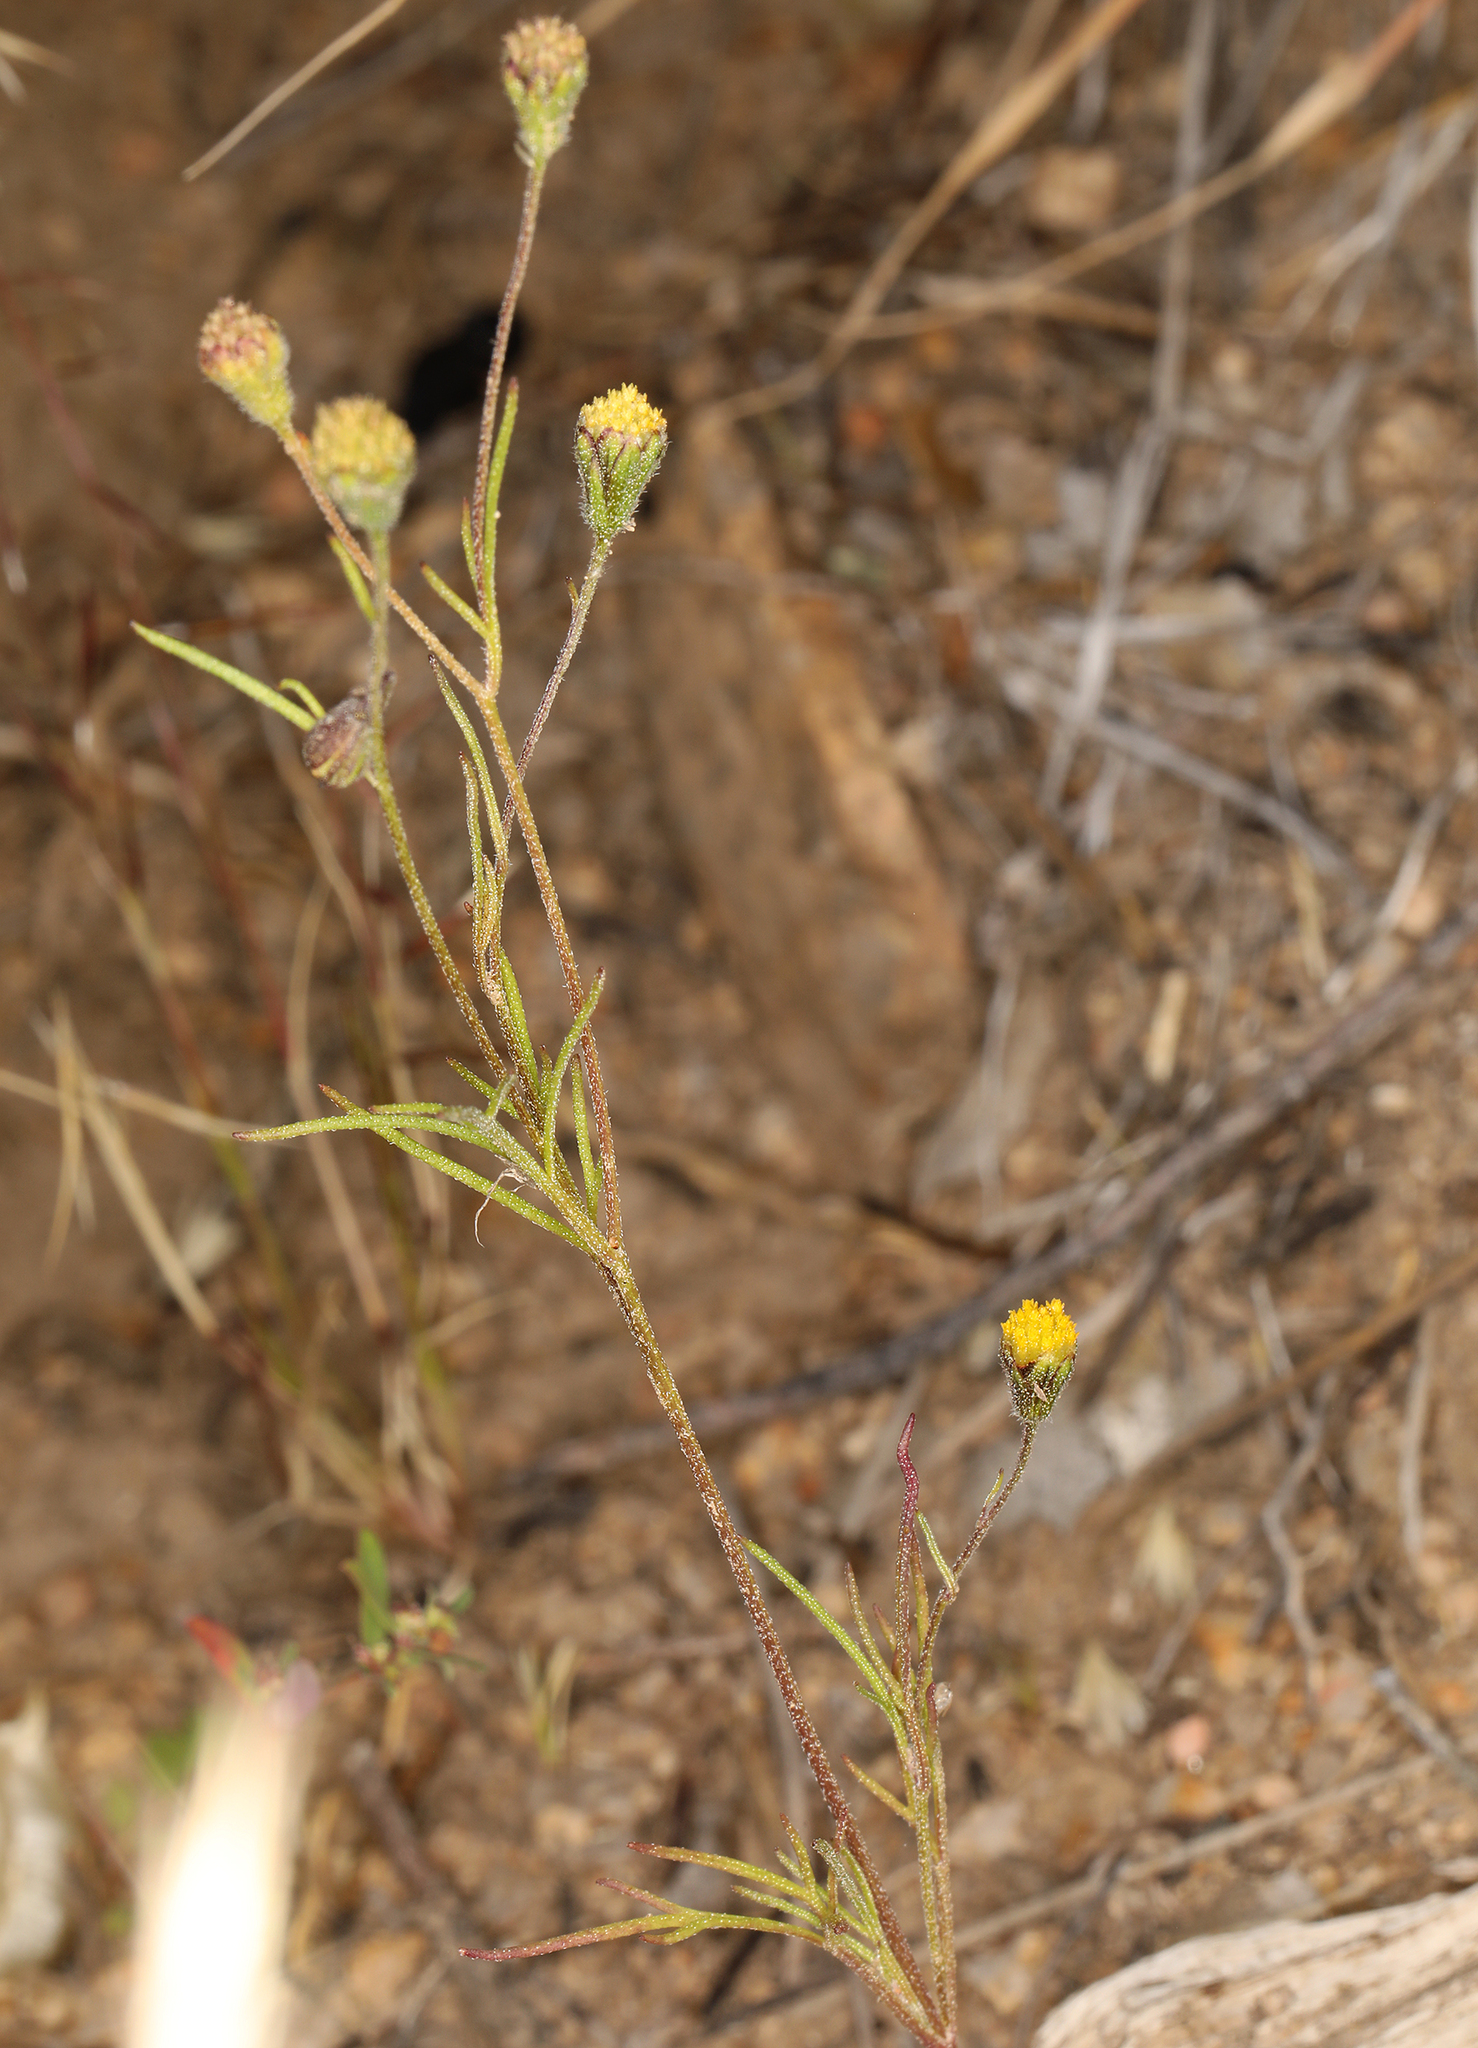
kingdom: Plantae
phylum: Tracheophyta
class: Magnoliopsida
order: Asterales
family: Asteraceae
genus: Picradeniopsis
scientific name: Picradeniopsis multiflora
